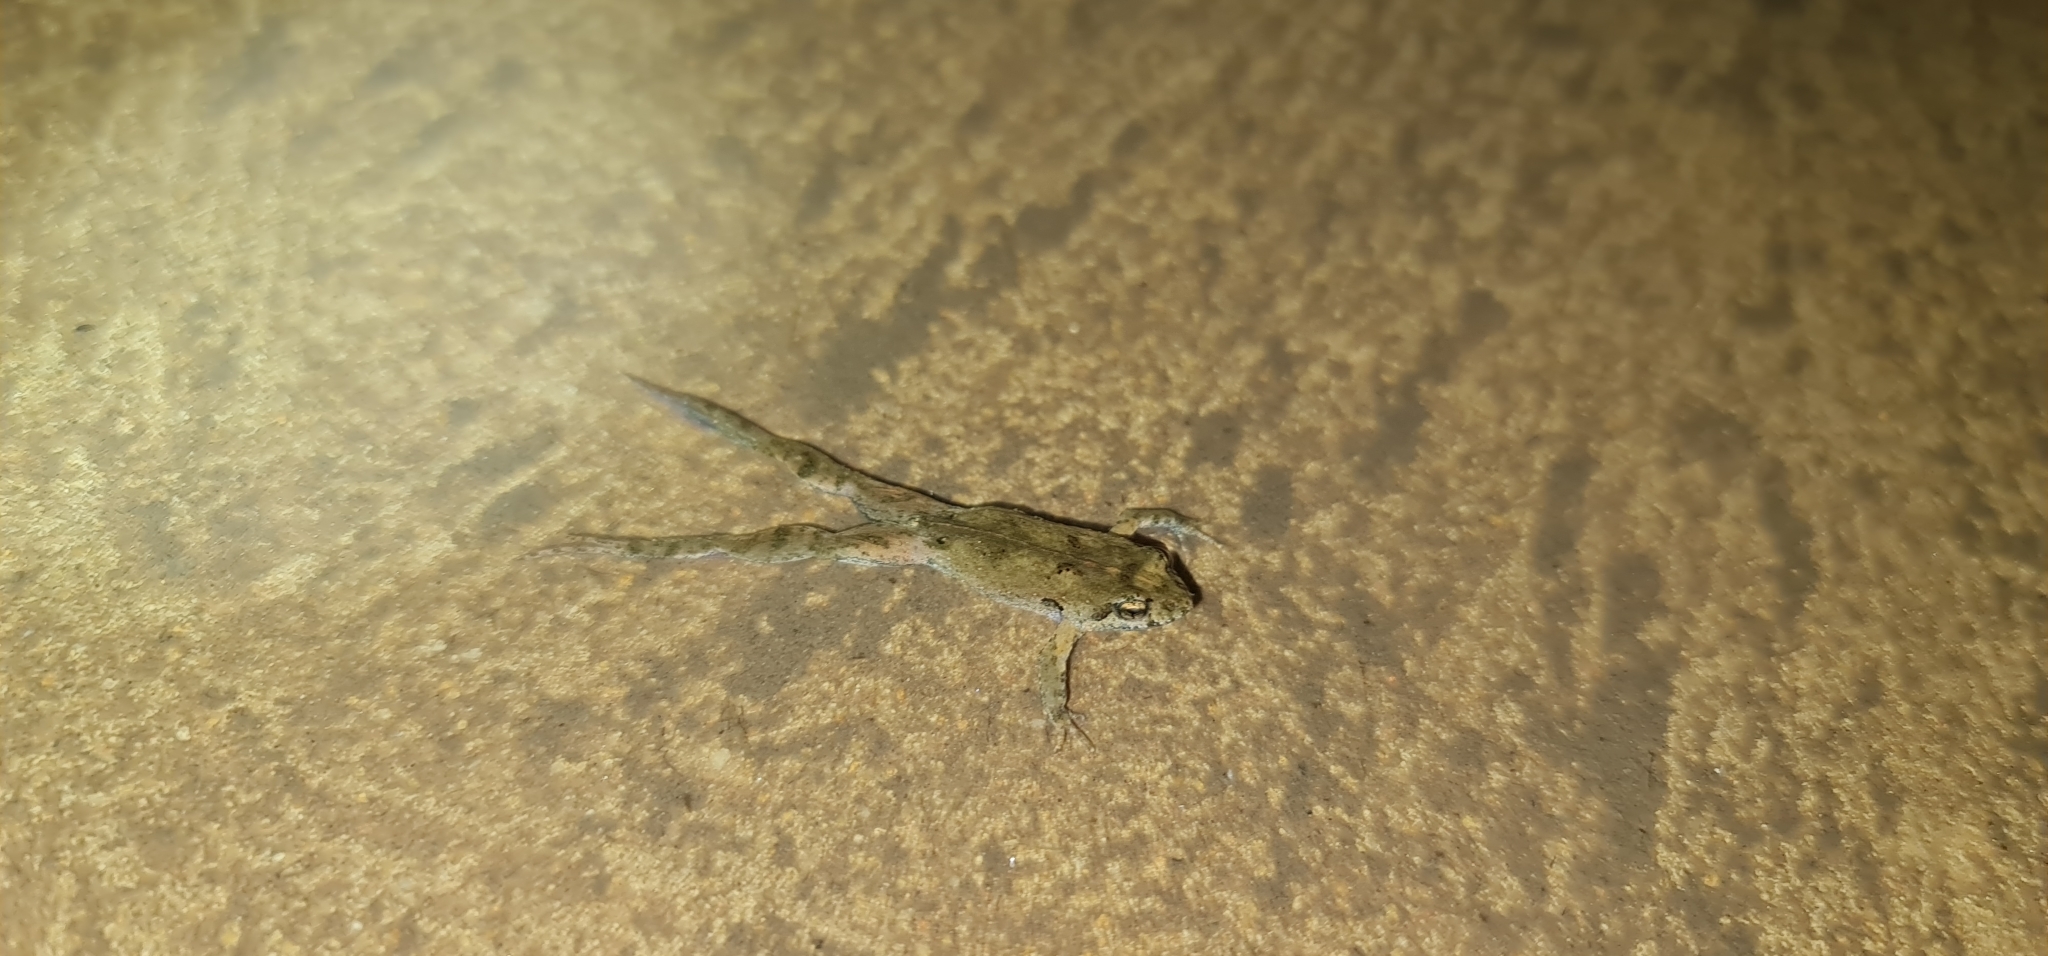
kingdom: Animalia
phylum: Chordata
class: Amphibia
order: Anura
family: Myobatrachidae
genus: Crinia
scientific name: Crinia signifera
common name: Brown froglet
